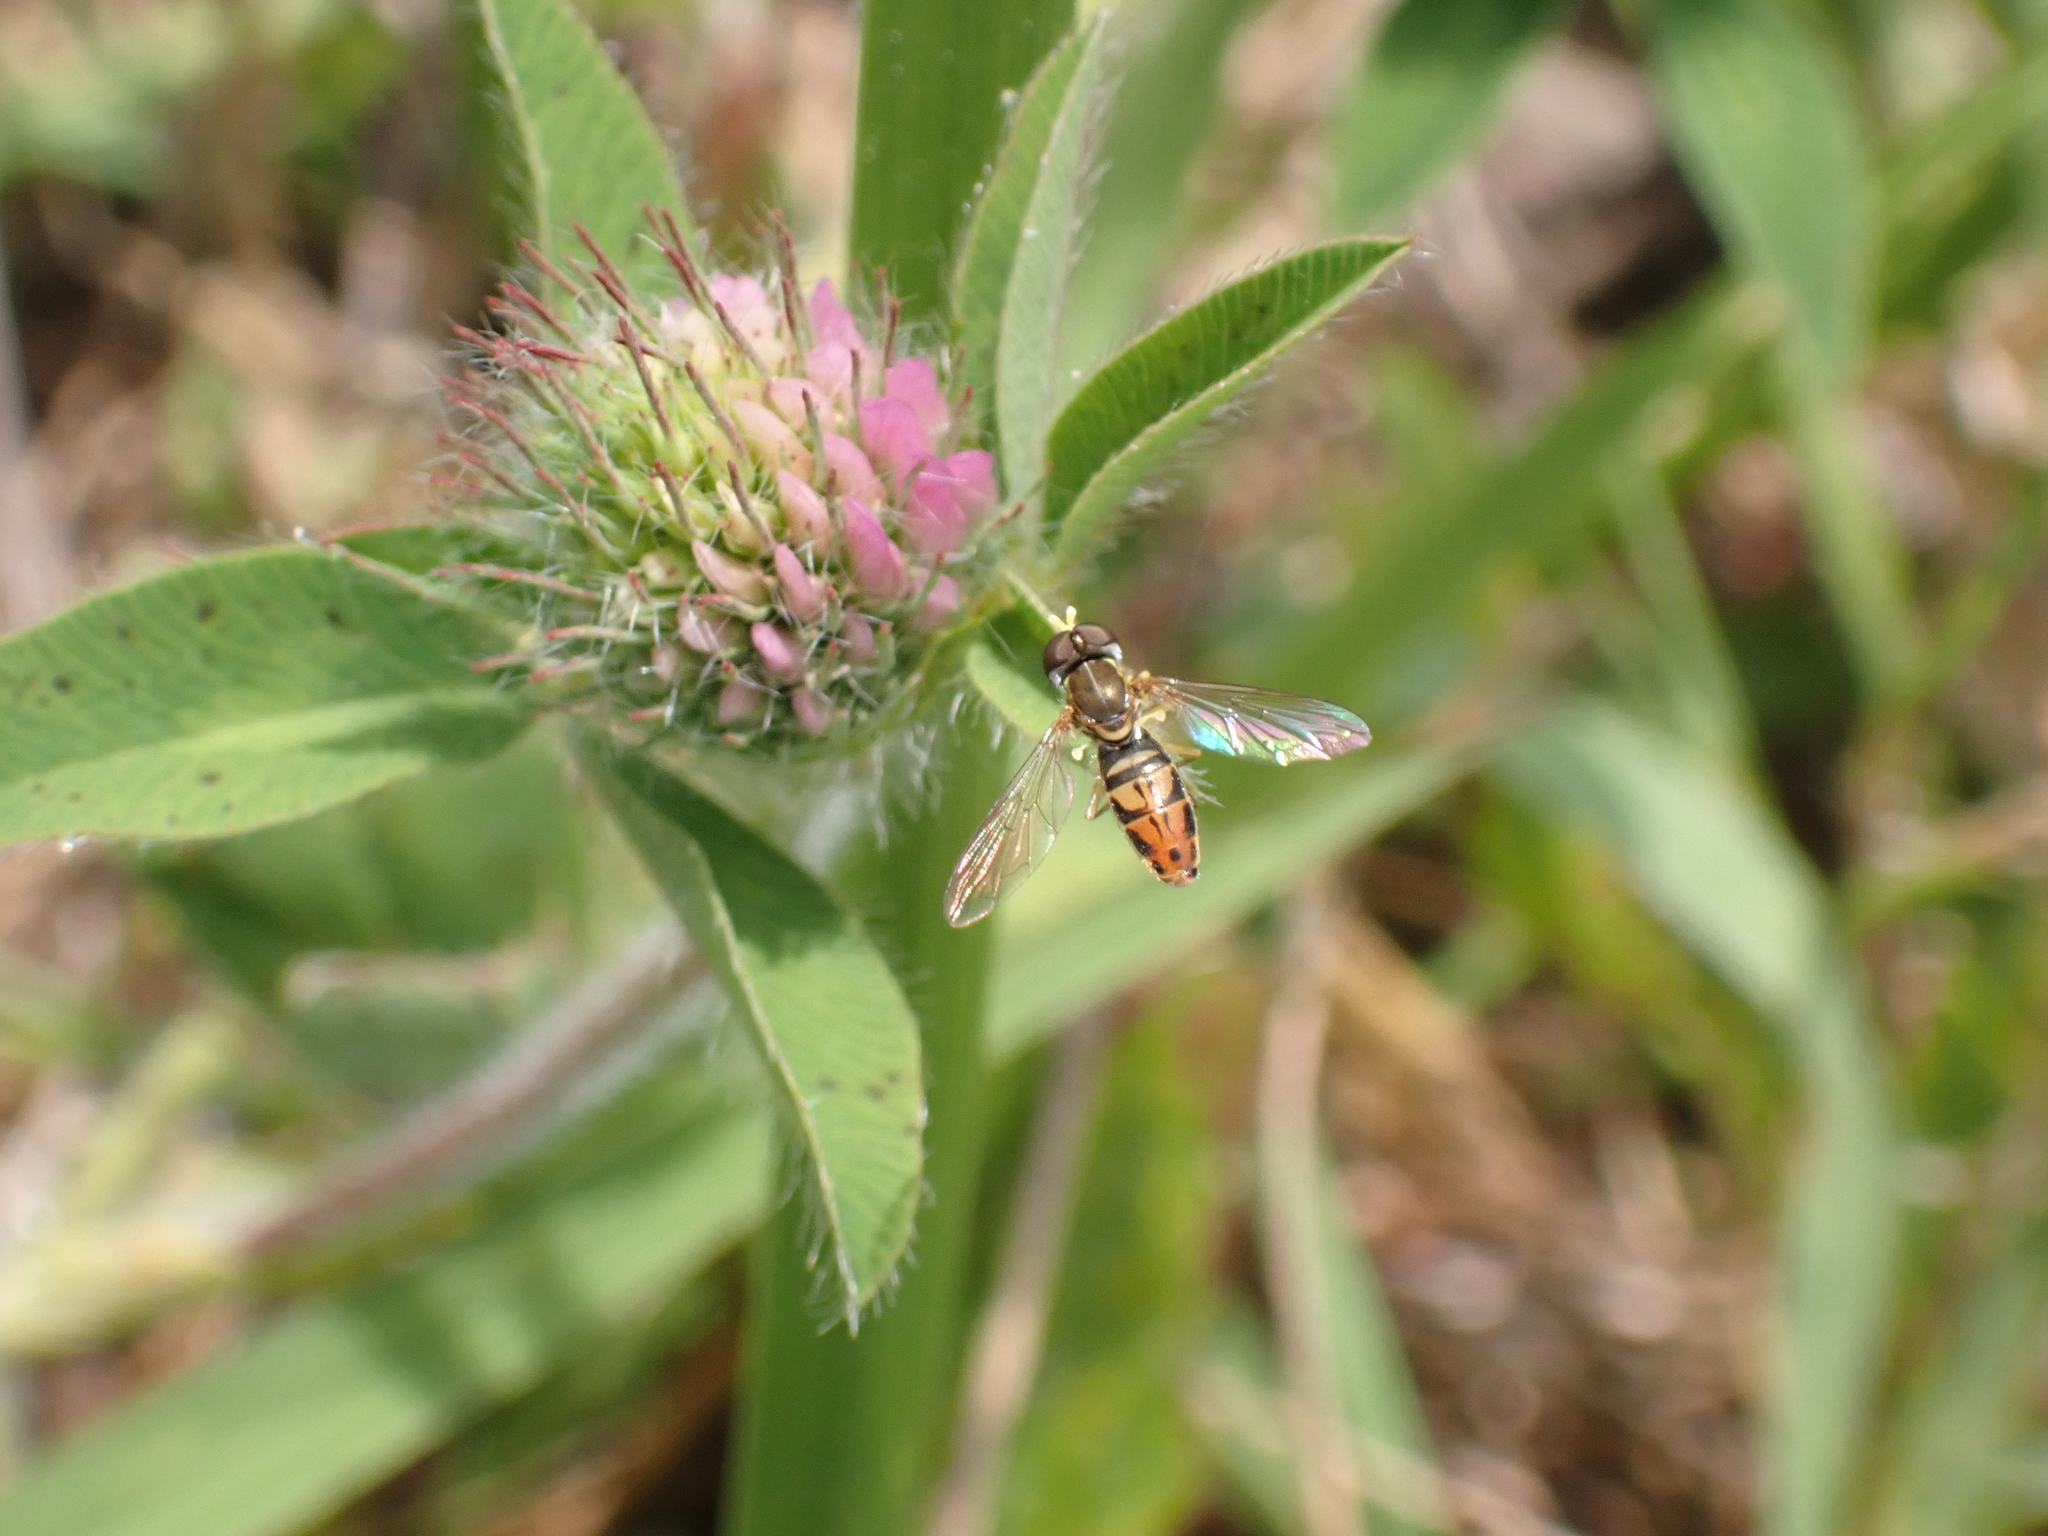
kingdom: Animalia
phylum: Arthropoda
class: Insecta
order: Diptera
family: Syrphidae
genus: Toxomerus
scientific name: Toxomerus marginatus
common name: Syrphid fly
